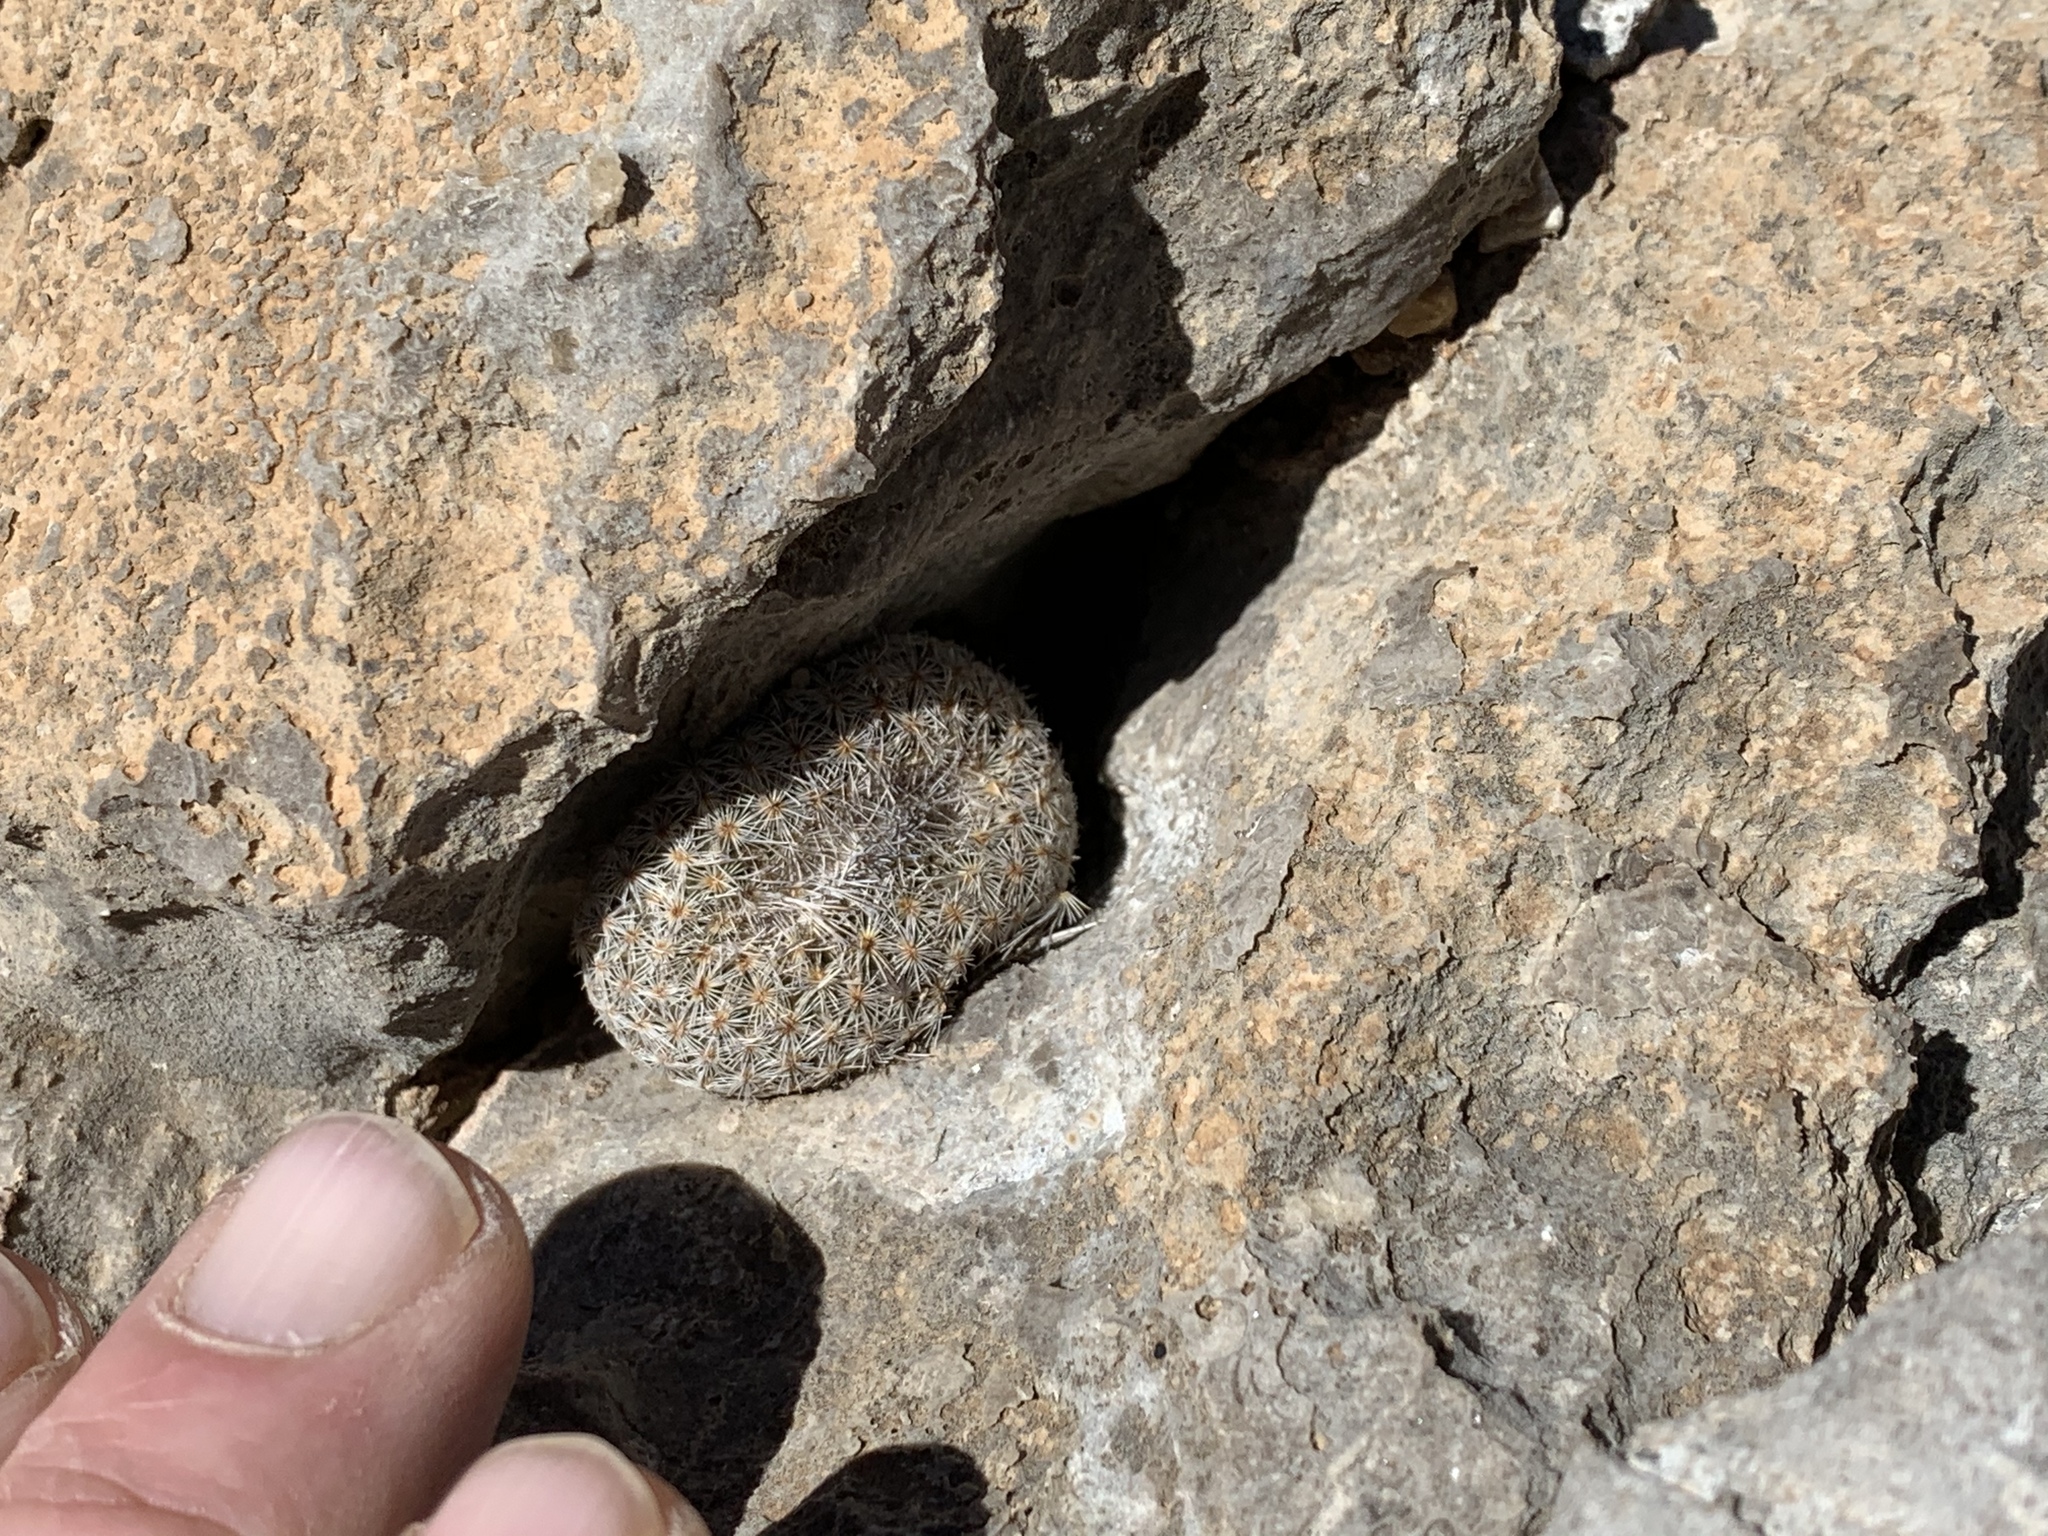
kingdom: Plantae
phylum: Tracheophyta
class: Magnoliopsida
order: Caryophyllales
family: Cactaceae
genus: Epithelantha
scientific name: Epithelantha micromeris
